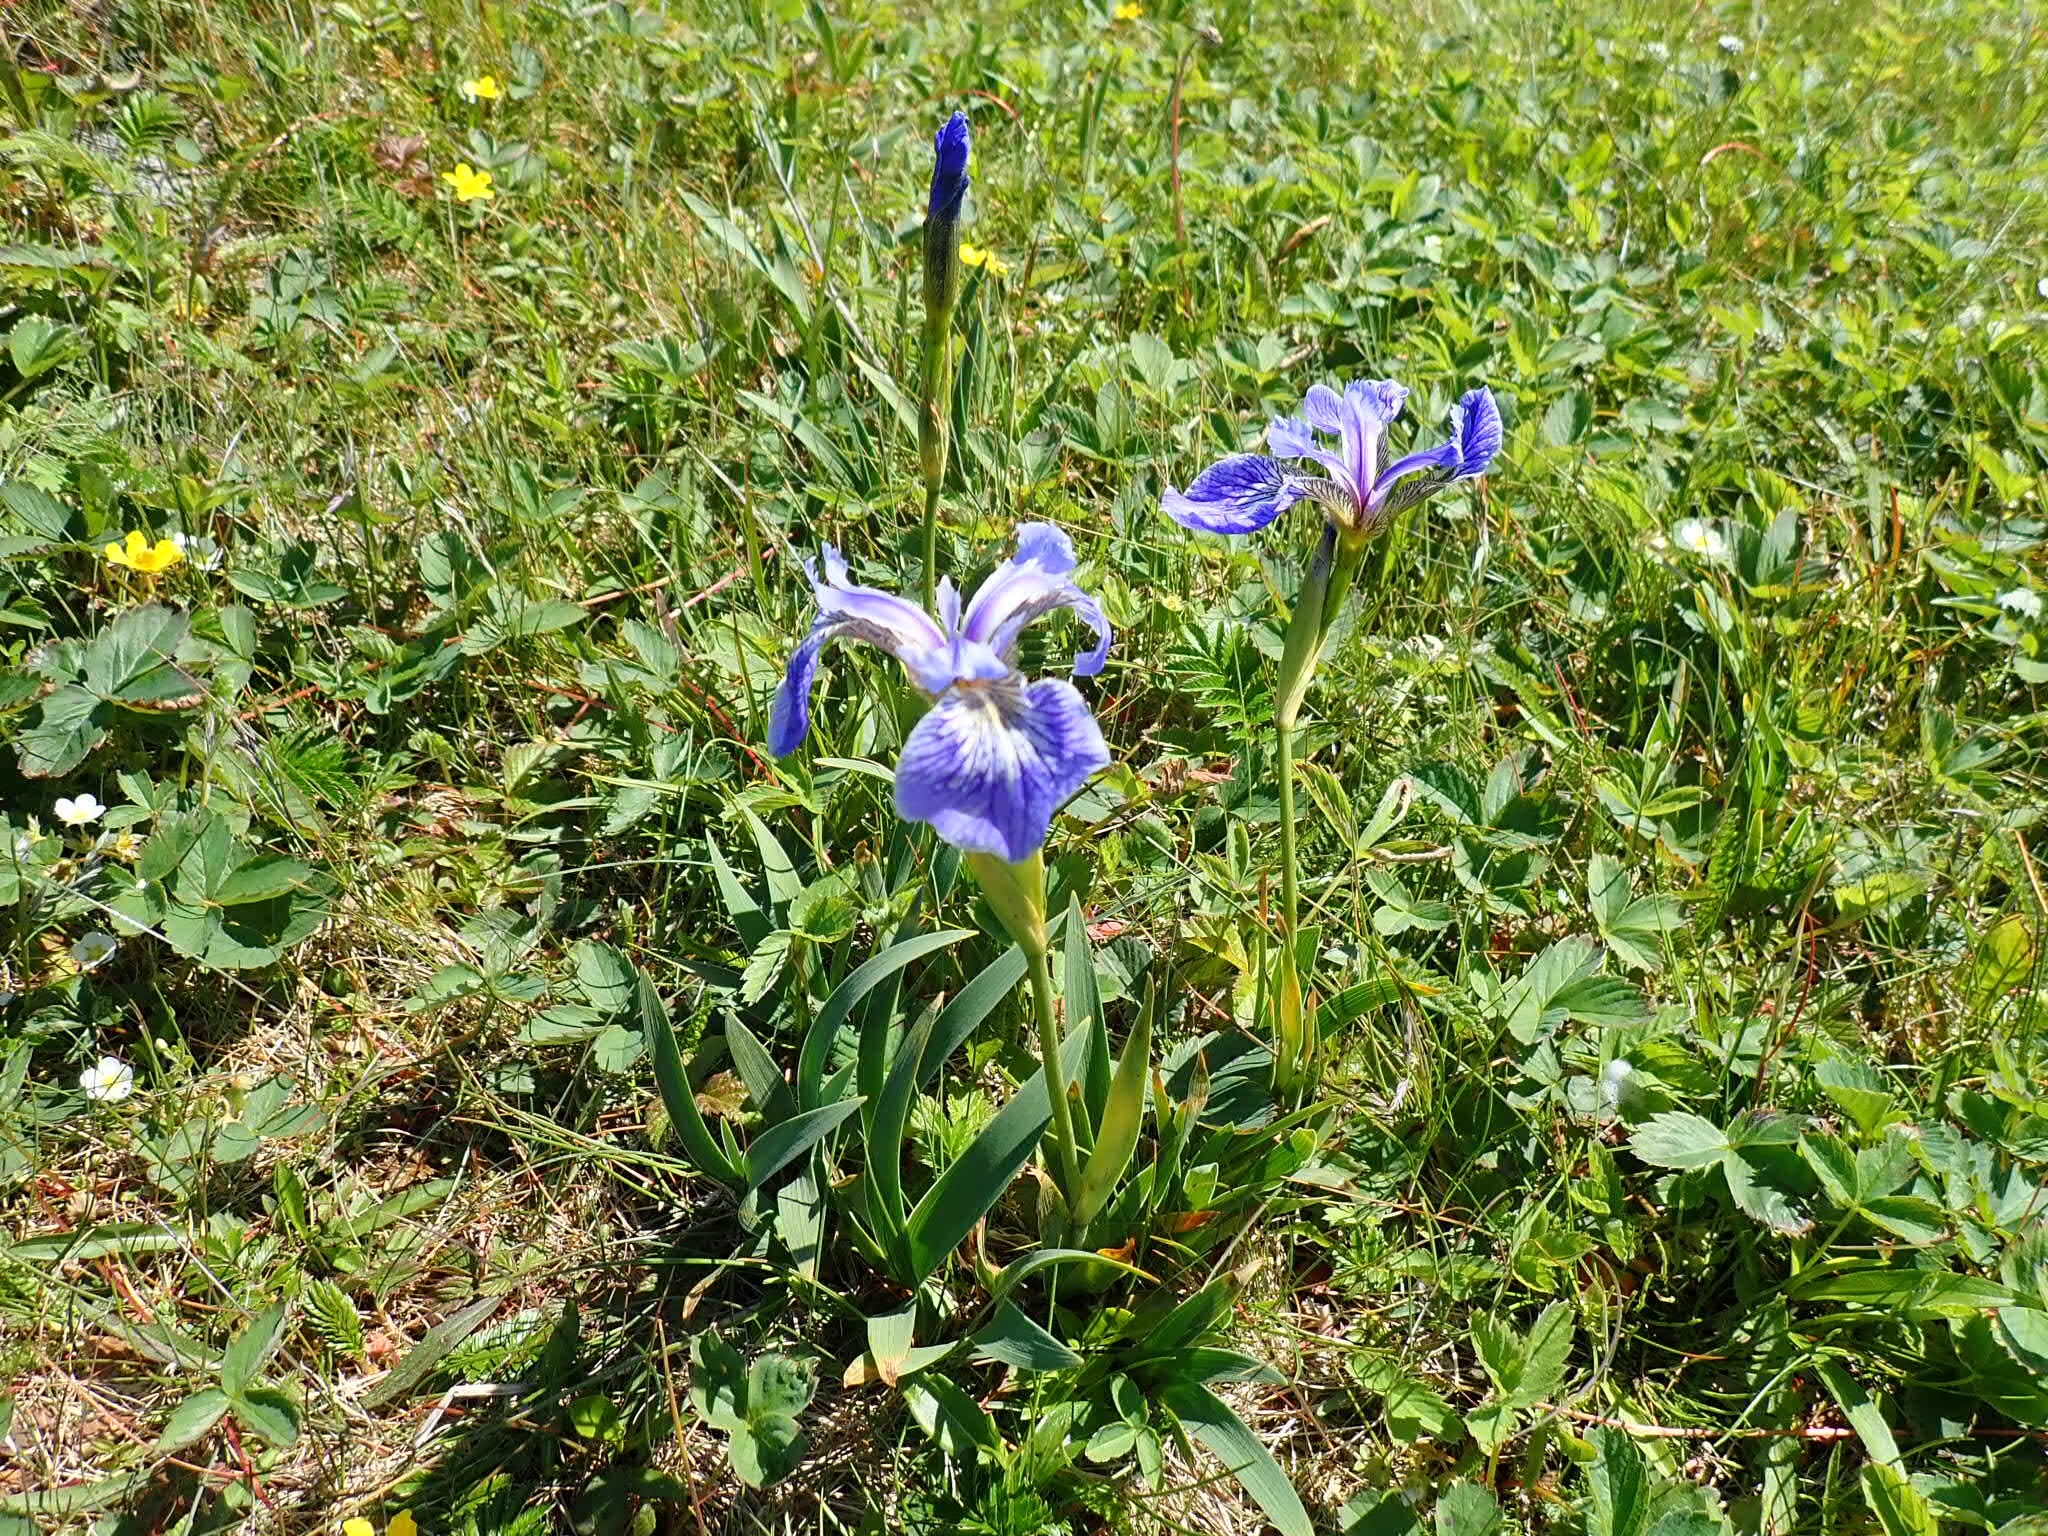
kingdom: Plantae
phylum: Tracheophyta
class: Liliopsida
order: Asparagales
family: Iridaceae
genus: Iris
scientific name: Iris hookeri
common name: Canada beach-head iris
